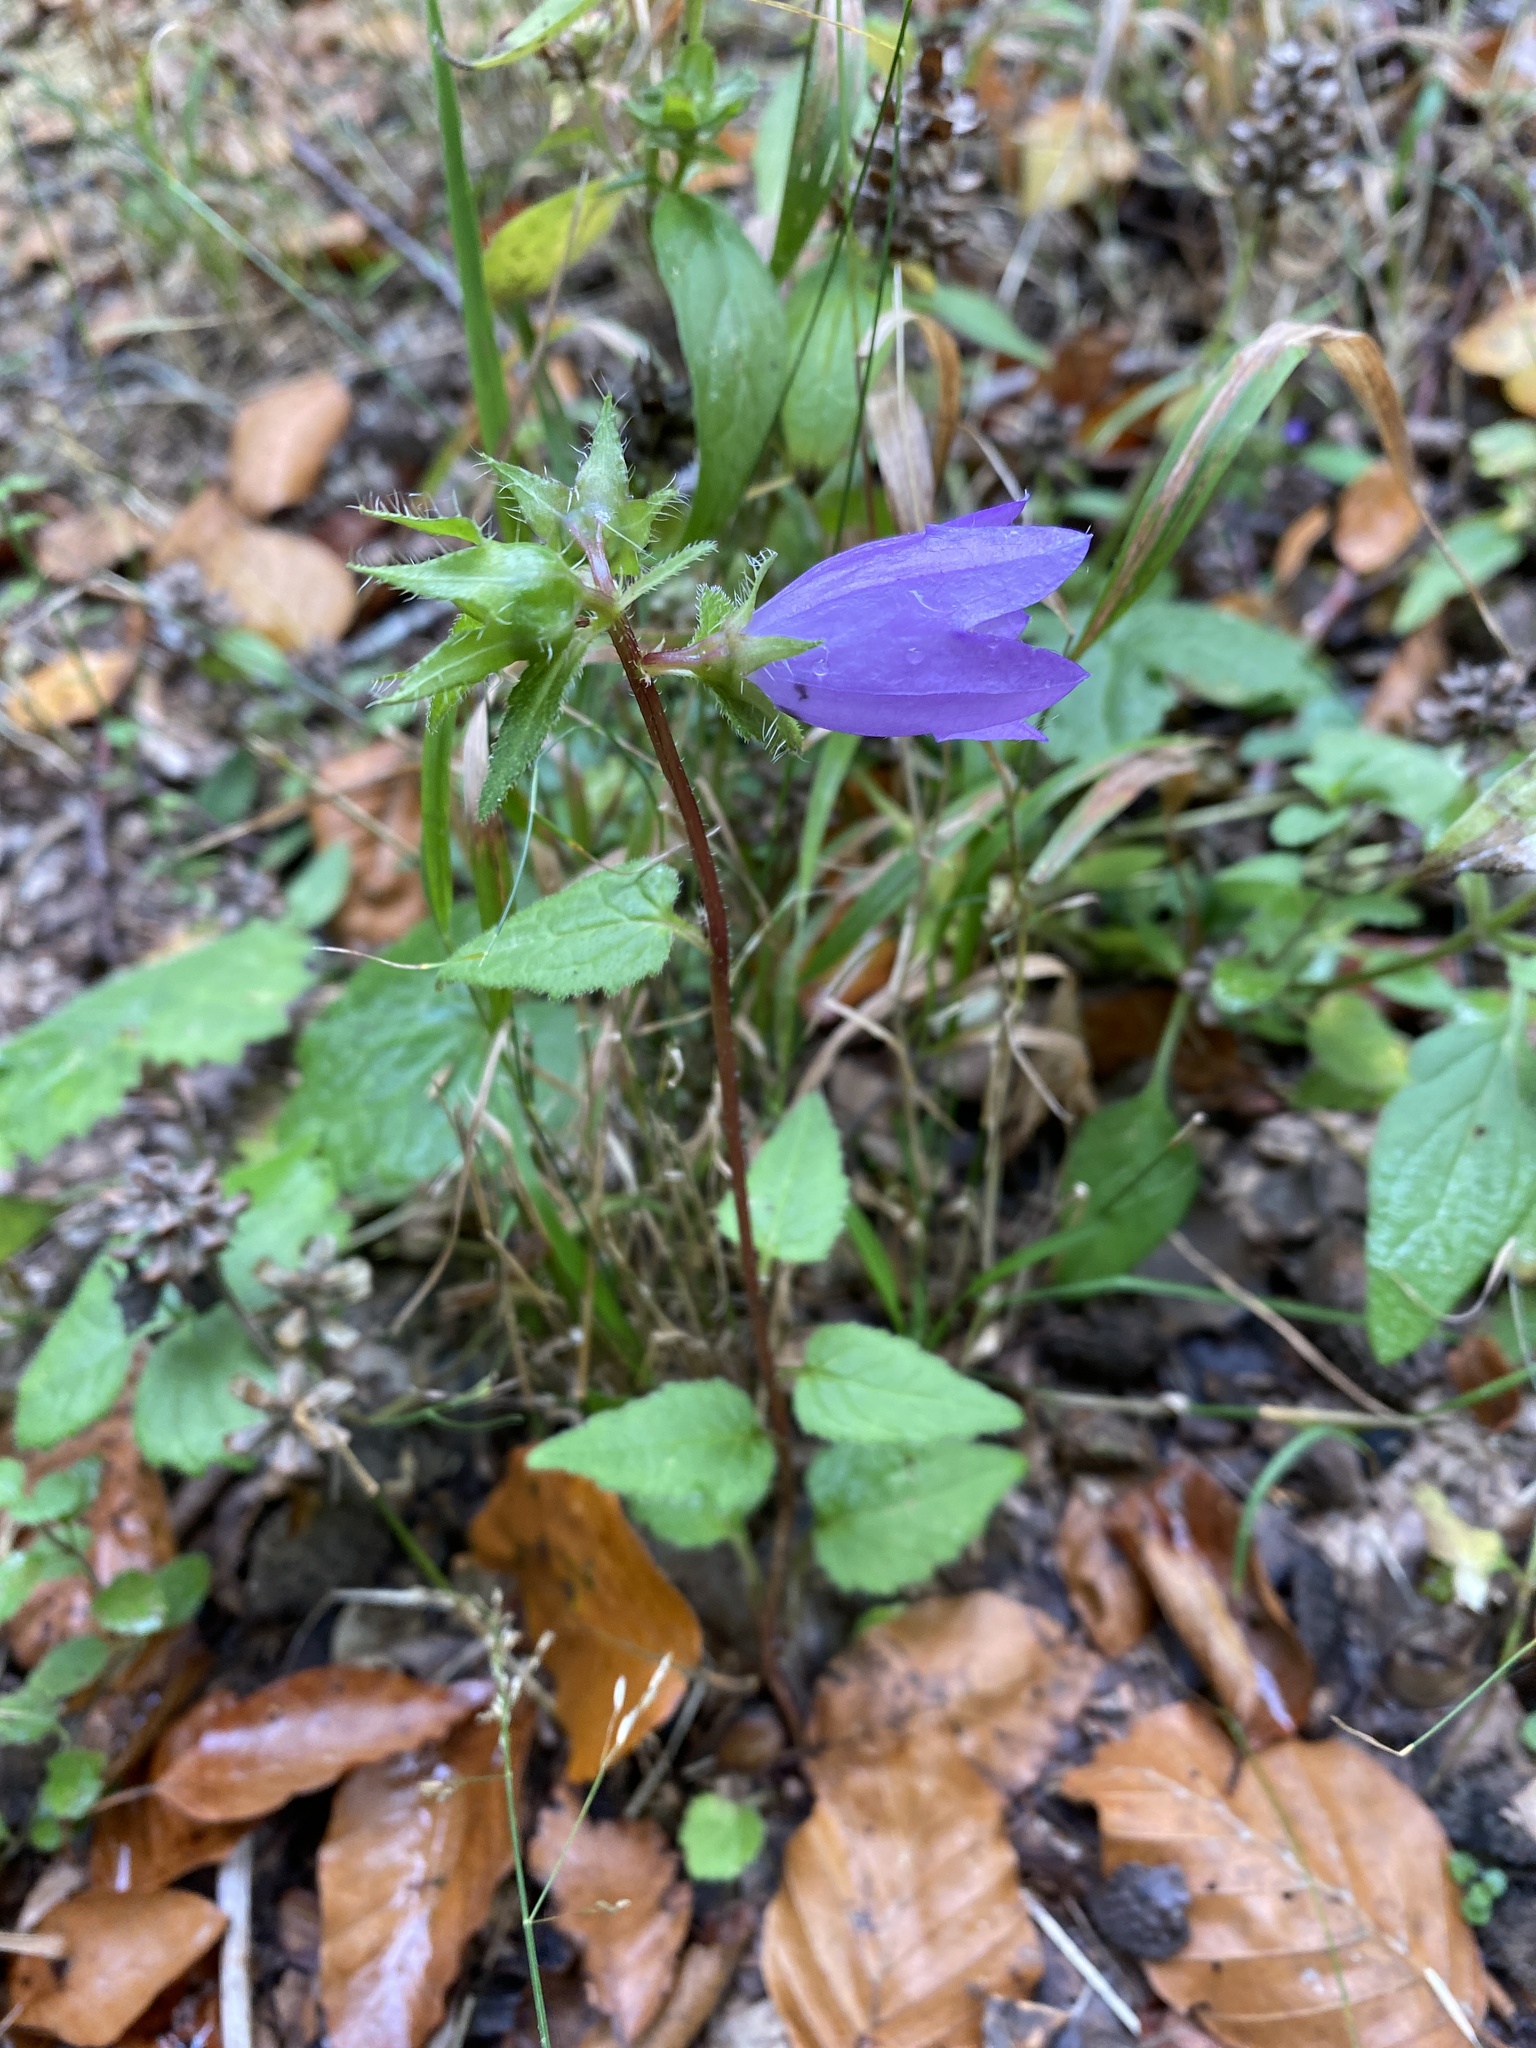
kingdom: Plantae
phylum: Tracheophyta
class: Magnoliopsida
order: Asterales
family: Campanulaceae
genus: Campanula
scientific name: Campanula trachelium
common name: Nettle-leaved bellflower
